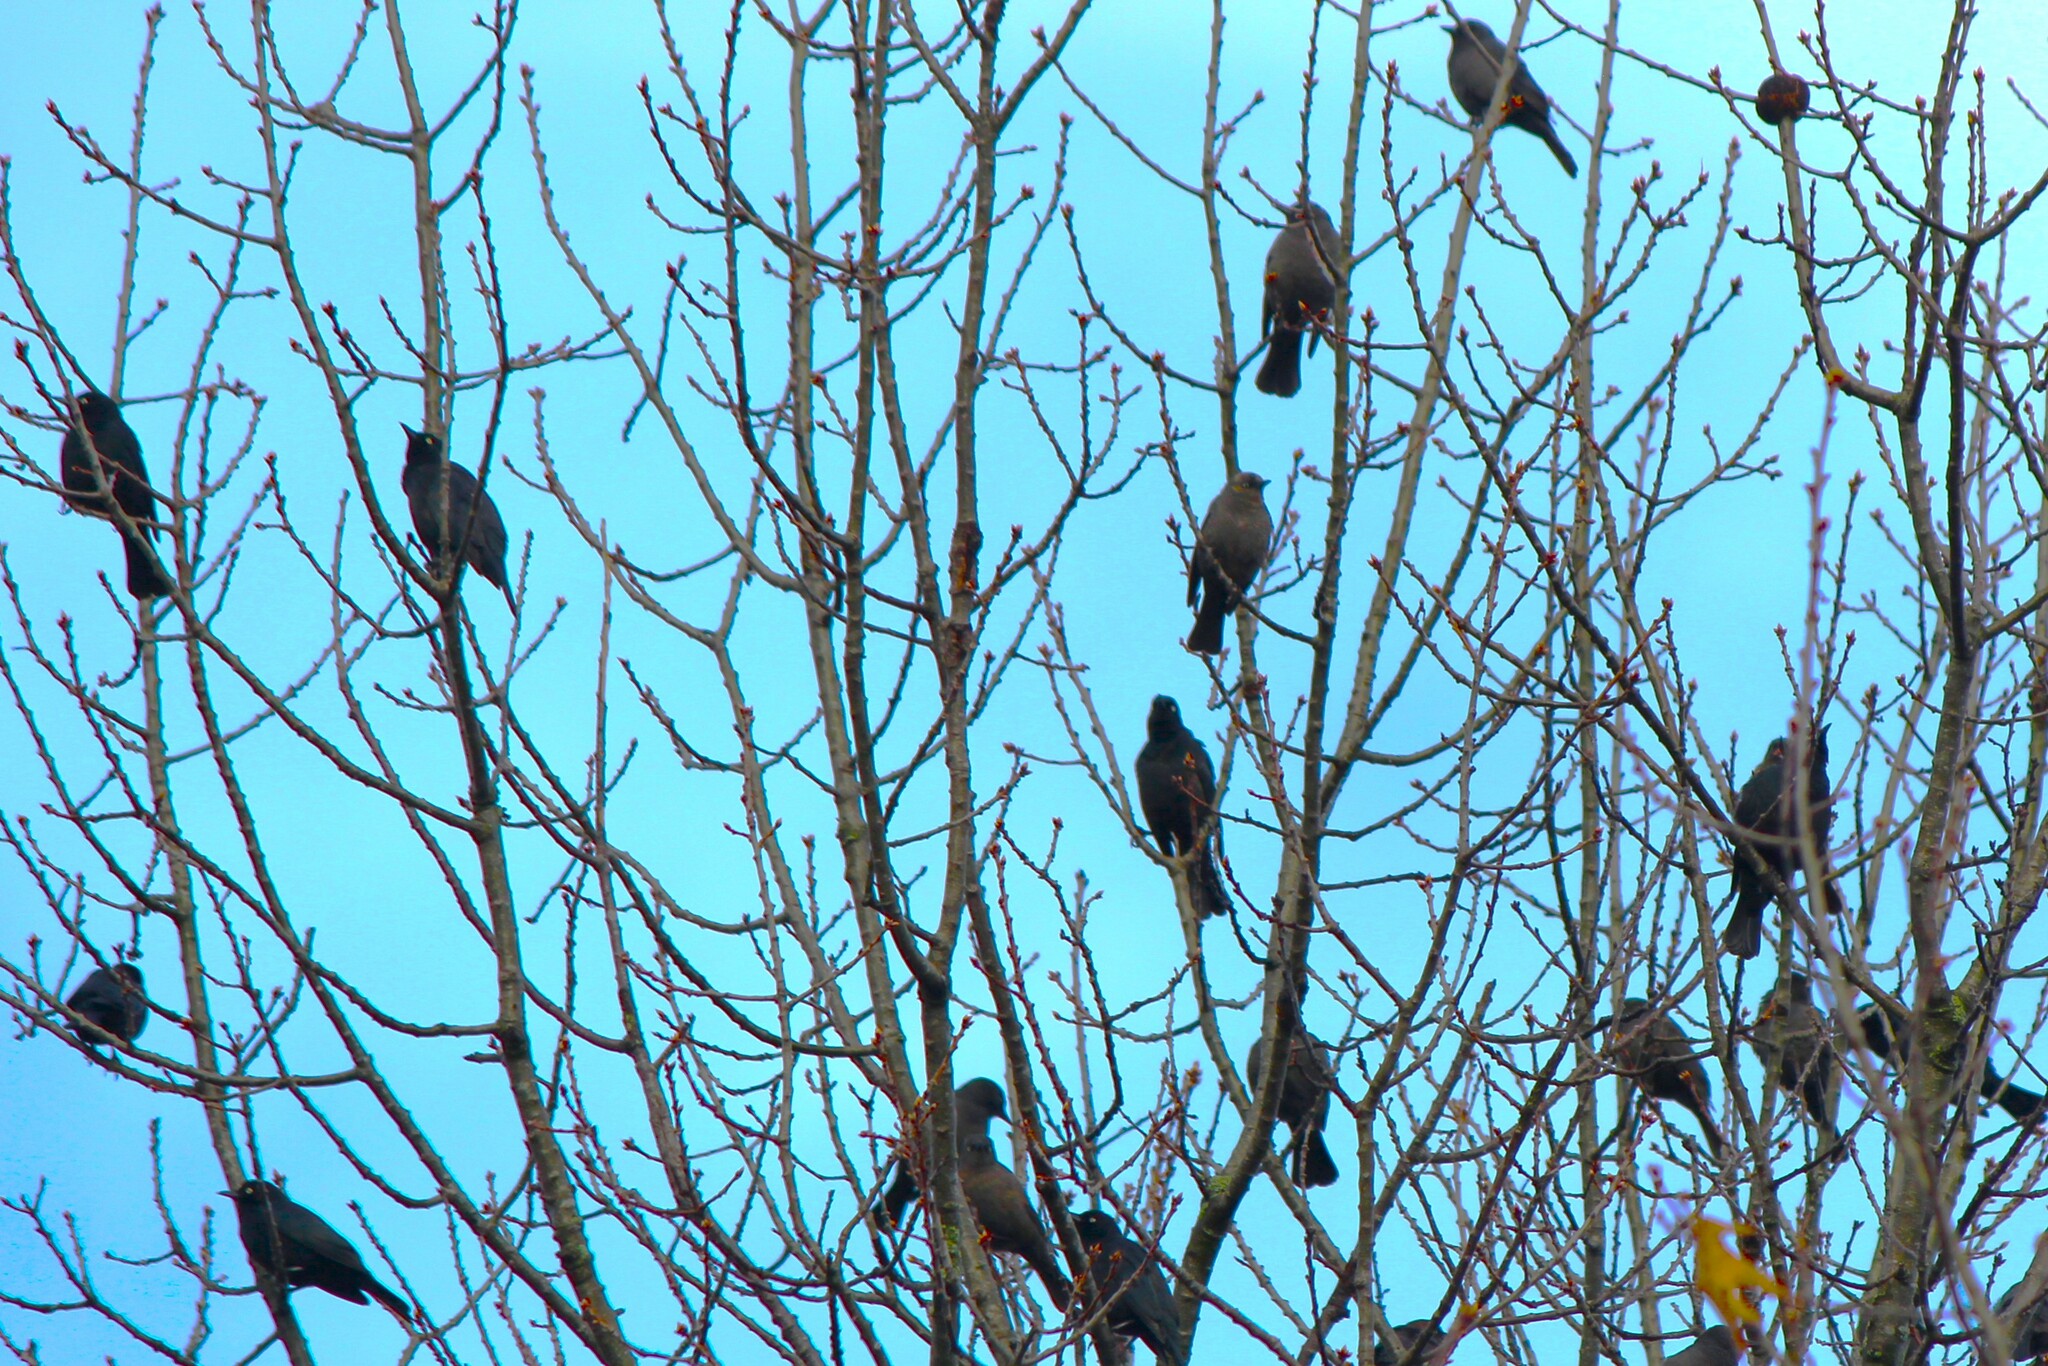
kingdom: Animalia
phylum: Chordata
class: Aves
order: Passeriformes
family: Icteridae
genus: Euphagus
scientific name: Euphagus carolinus
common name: Rusty blackbird
